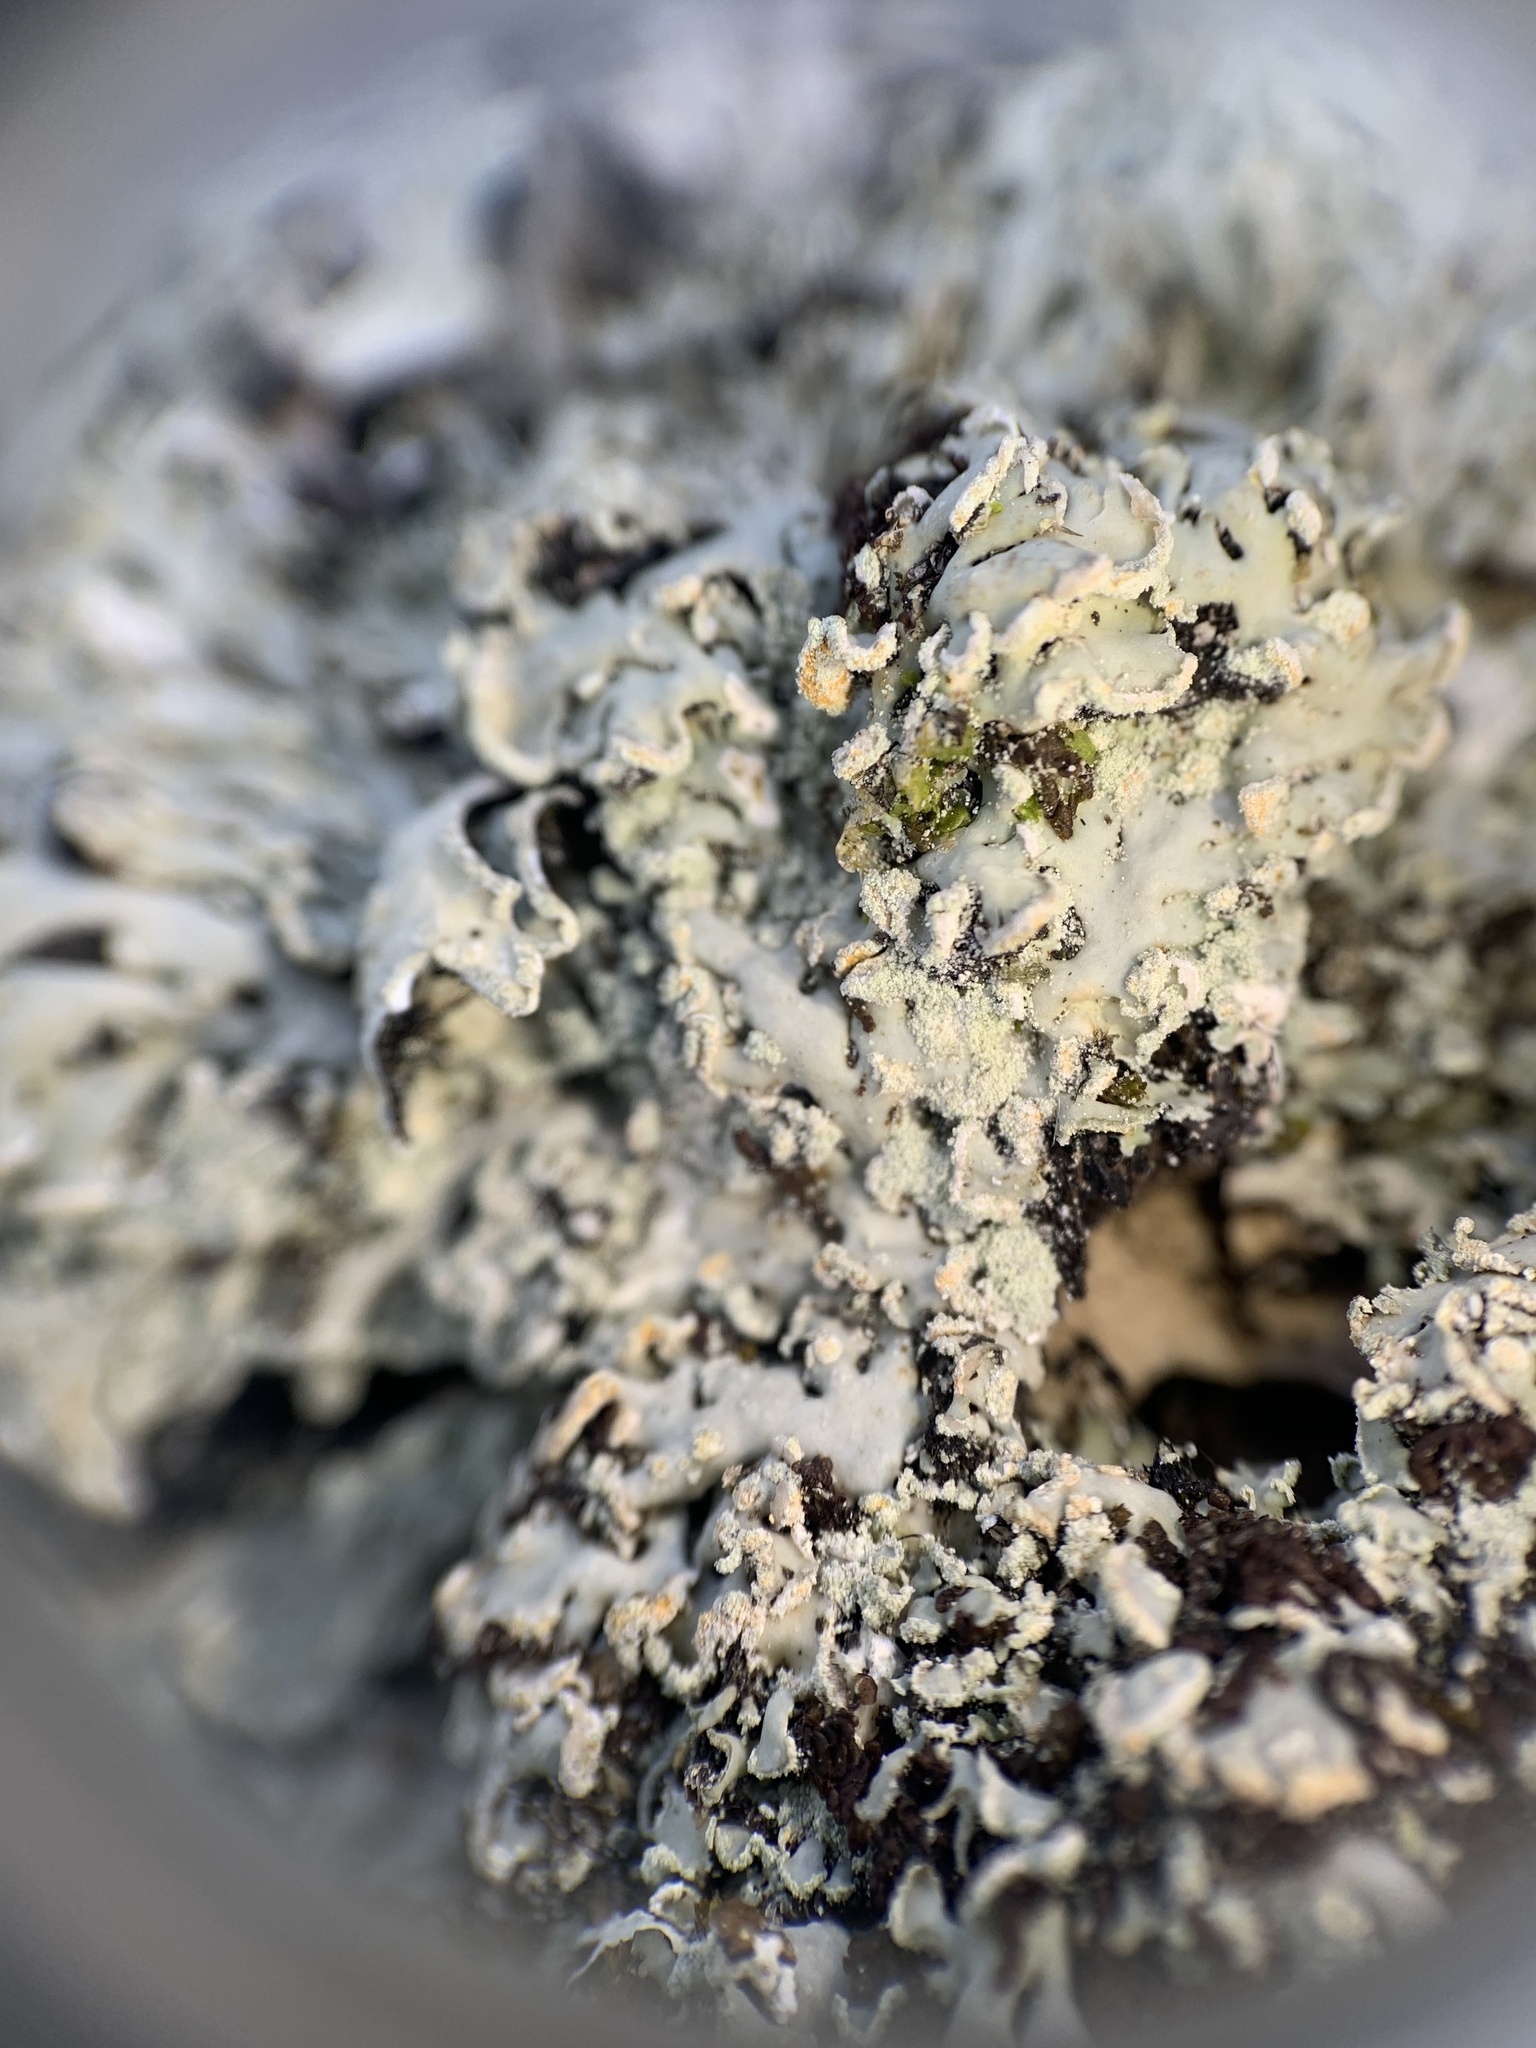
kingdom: Fungi
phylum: Ascomycota
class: Lecanoromycetes
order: Caliciales
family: Physciaceae
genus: Heterodermia
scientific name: Heterodermia obscurata
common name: Coralloid rosette-lichen
